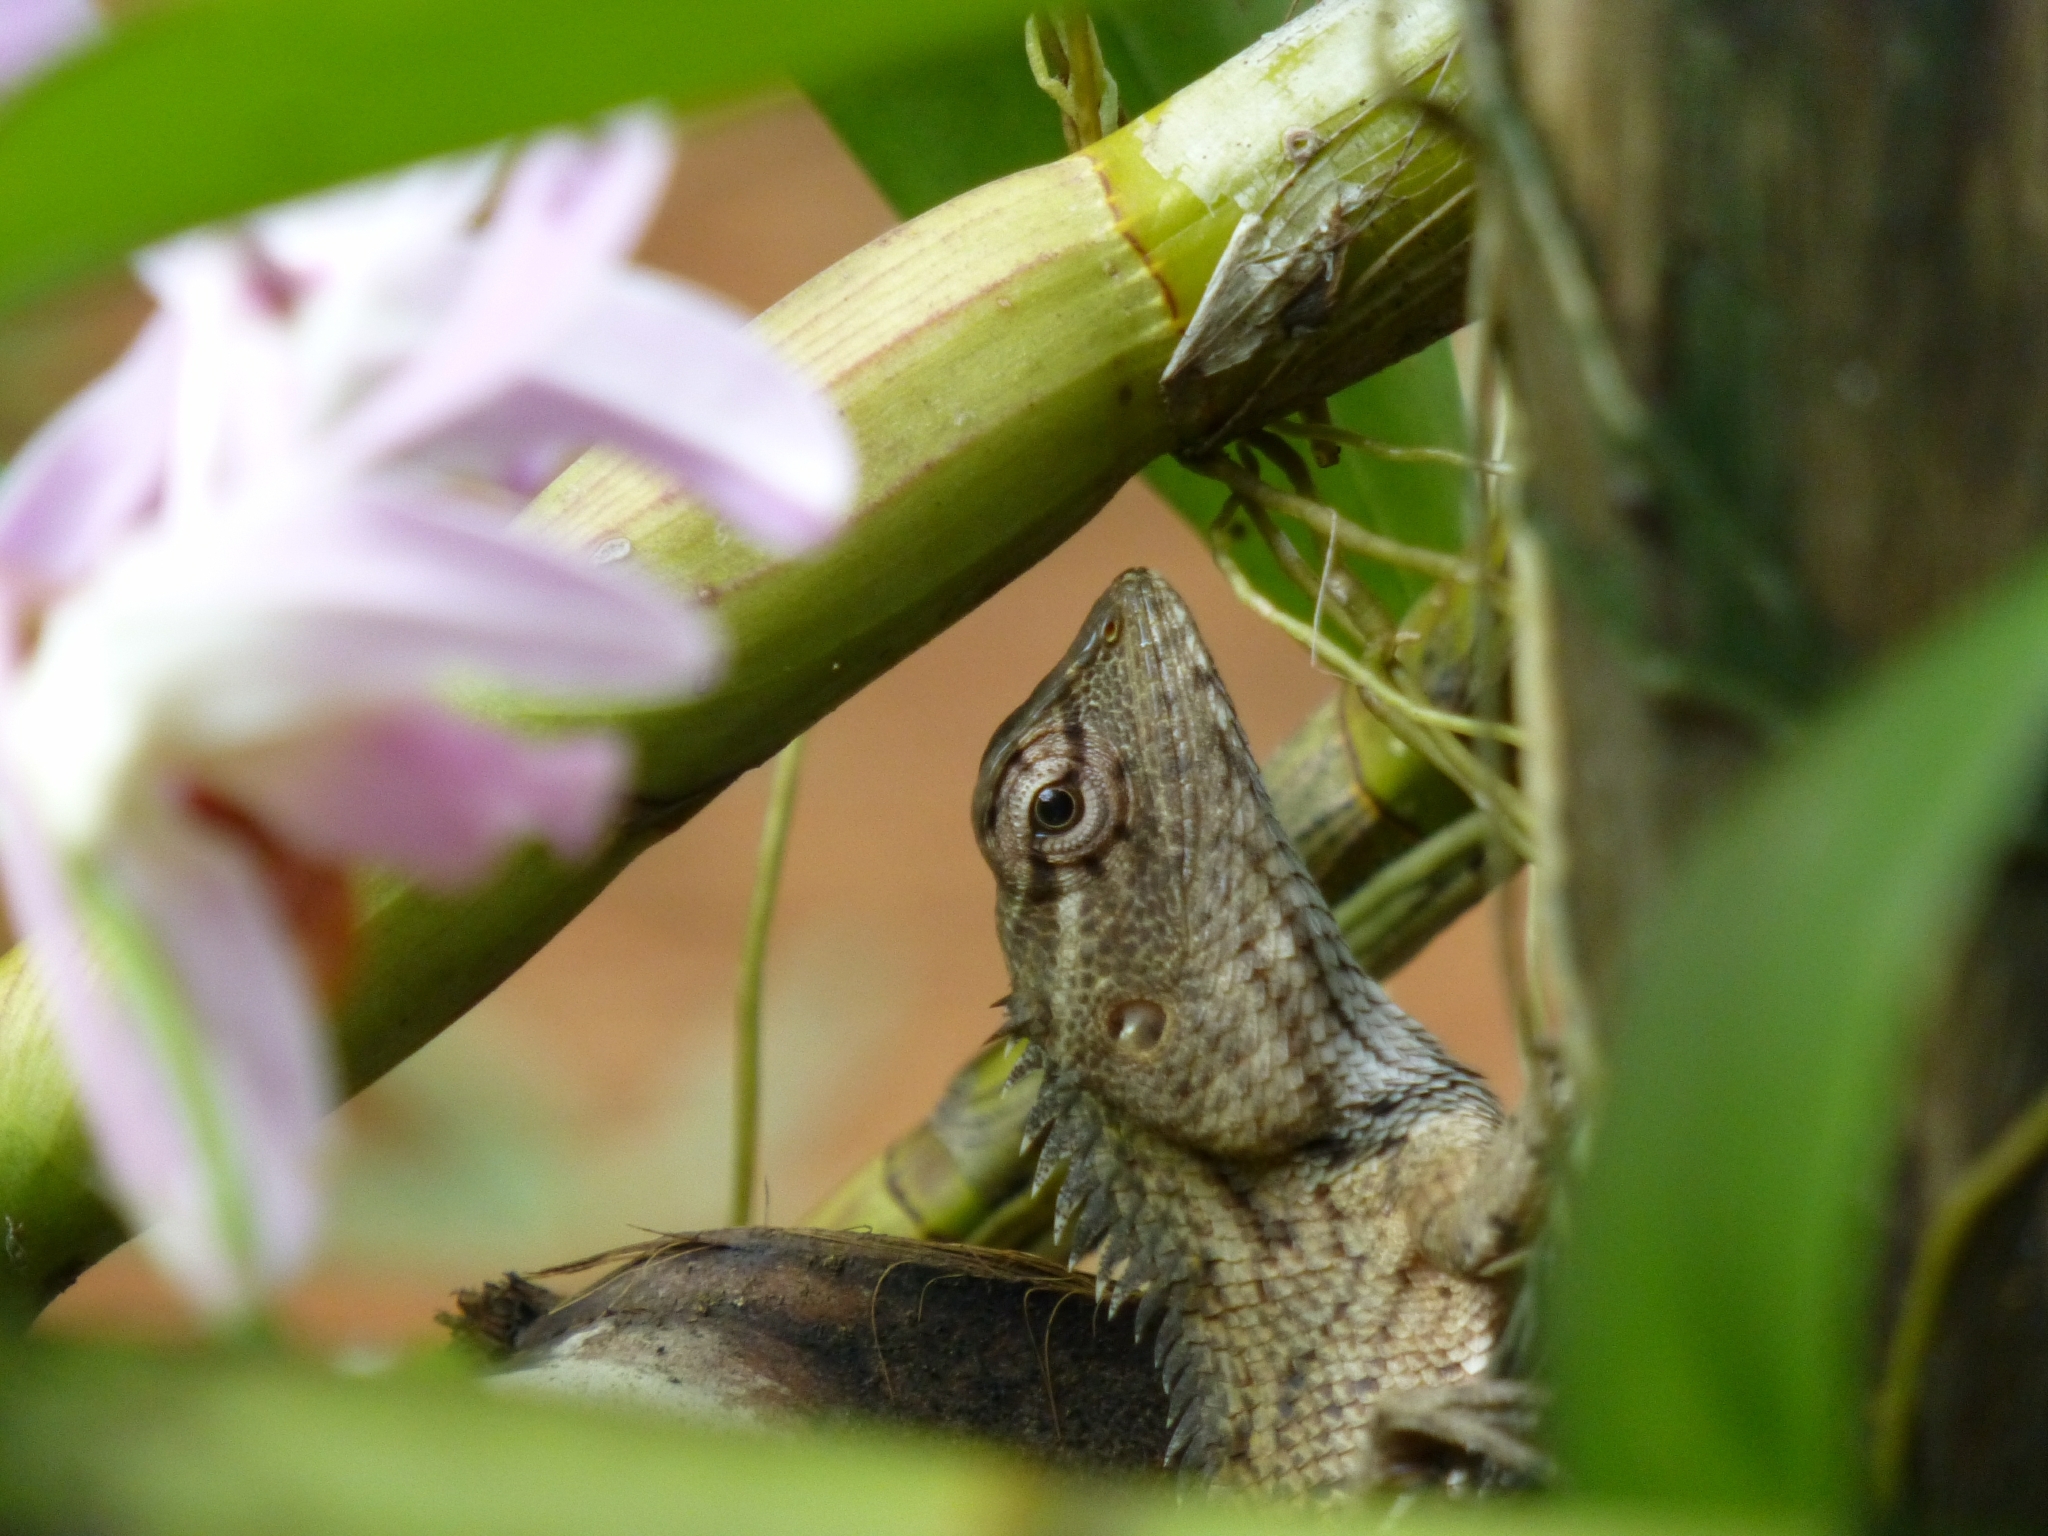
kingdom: Animalia
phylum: Chordata
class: Squamata
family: Agamidae
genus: Calotes
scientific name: Calotes versicolor
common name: Oriental garden lizard
